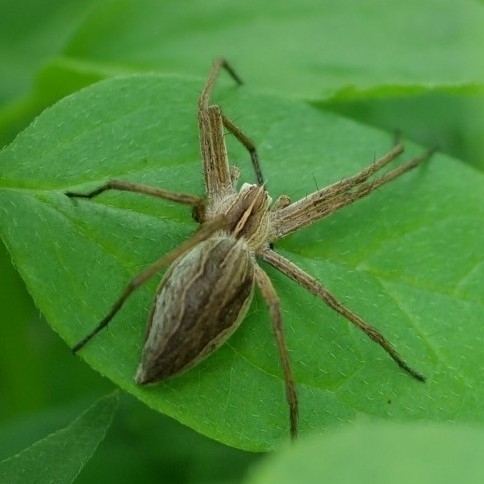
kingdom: Animalia
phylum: Arthropoda
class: Arachnida
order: Araneae
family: Pisauridae
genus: Pisaura
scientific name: Pisaura mirabilis
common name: Tent spider
